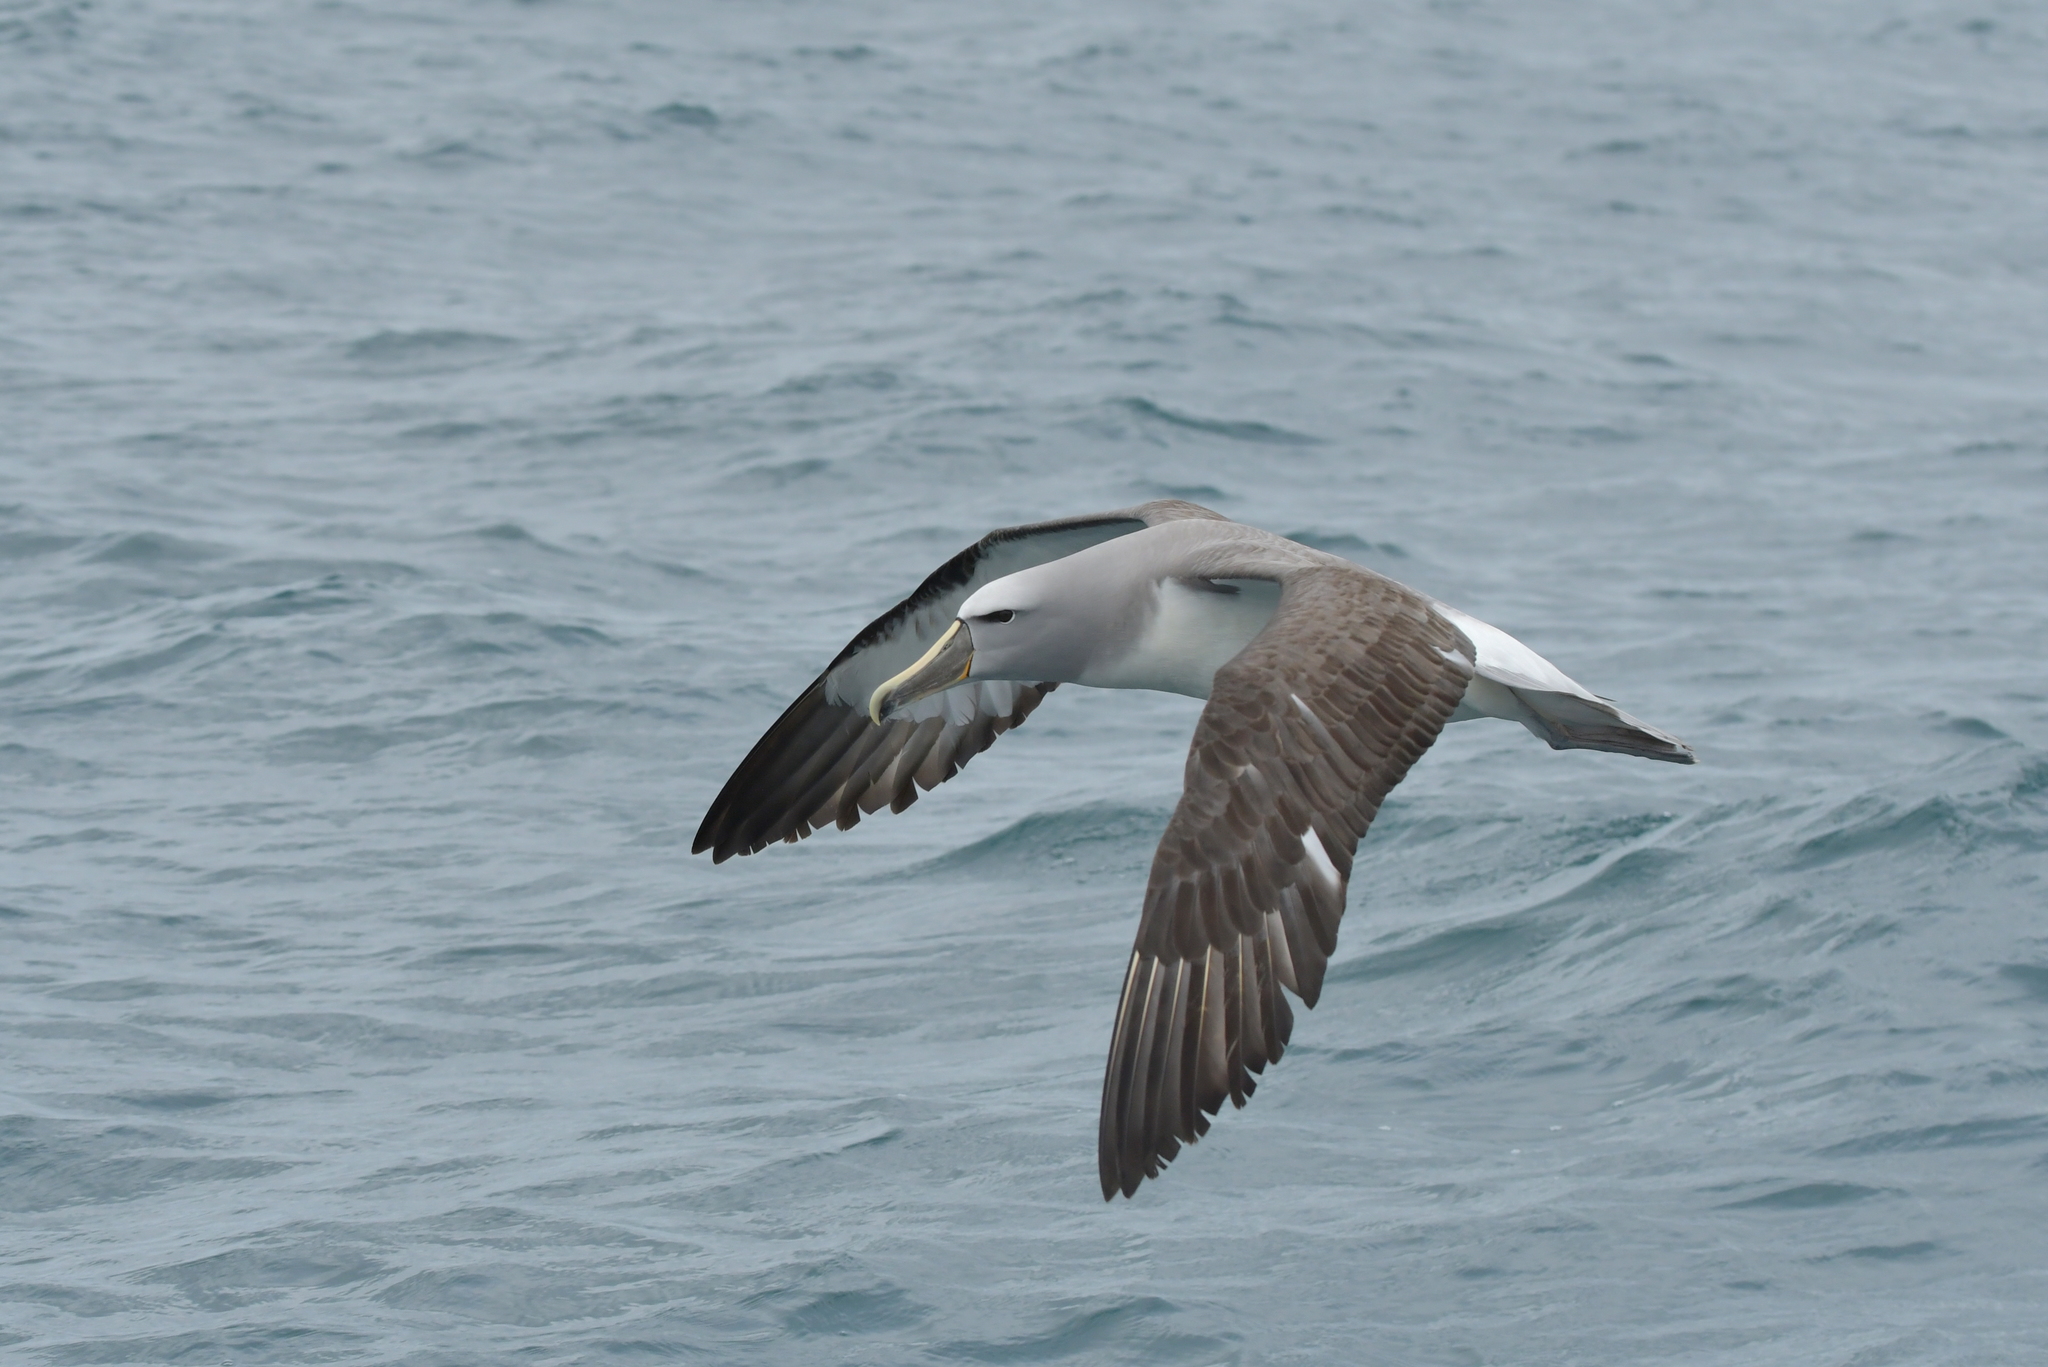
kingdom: Animalia
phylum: Chordata
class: Aves
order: Procellariiformes
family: Diomedeidae
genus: Thalassarche
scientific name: Thalassarche salvini
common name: Salvin's albatross
